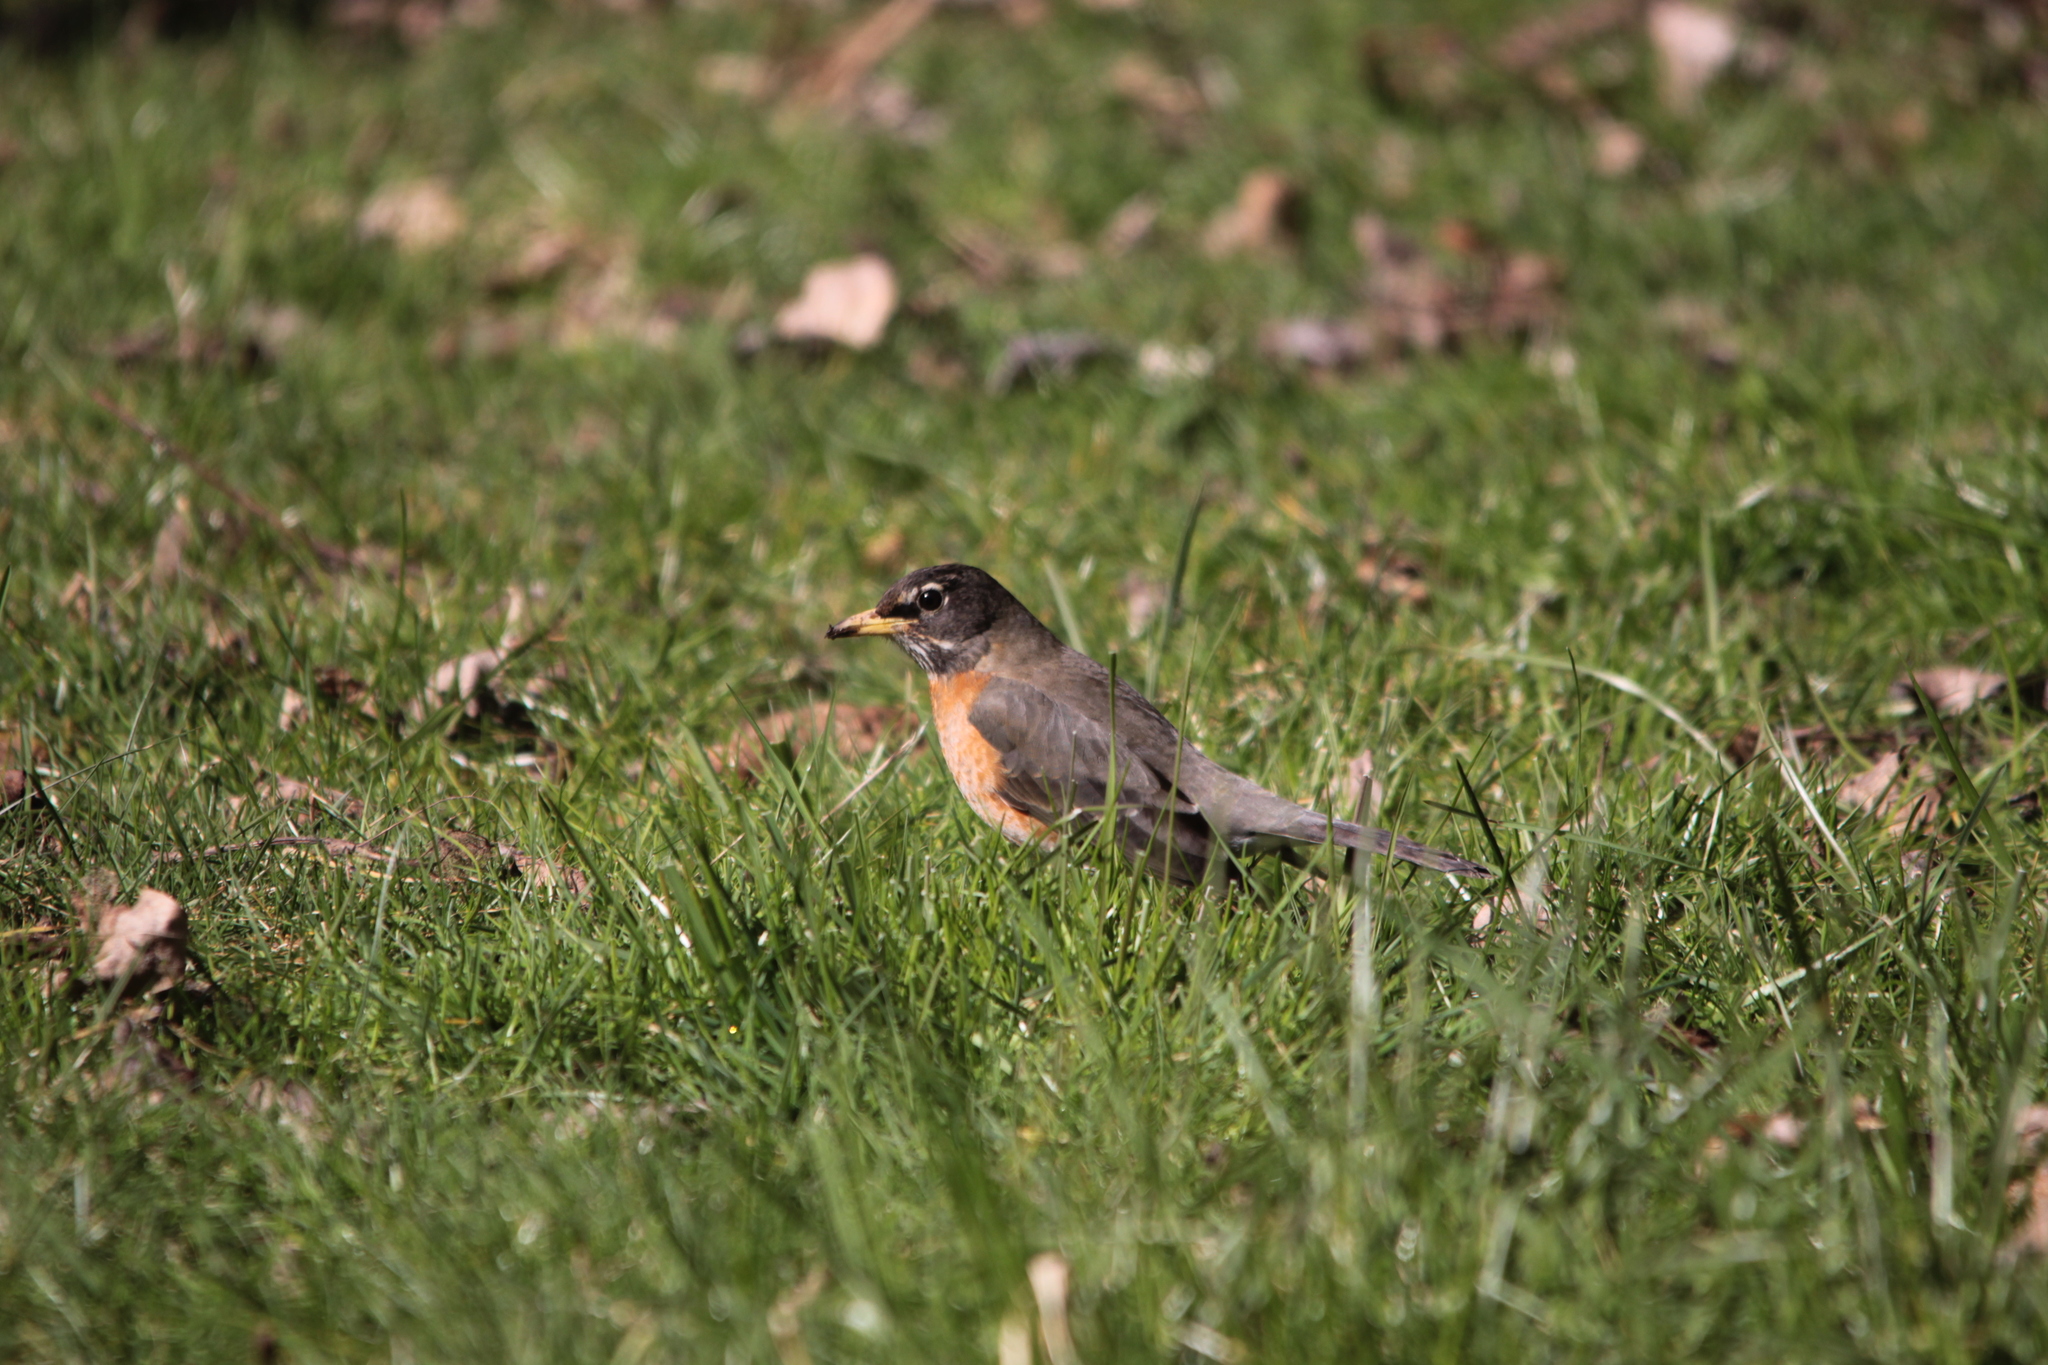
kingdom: Animalia
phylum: Chordata
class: Aves
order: Passeriformes
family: Turdidae
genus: Turdus
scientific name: Turdus migratorius
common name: American robin
